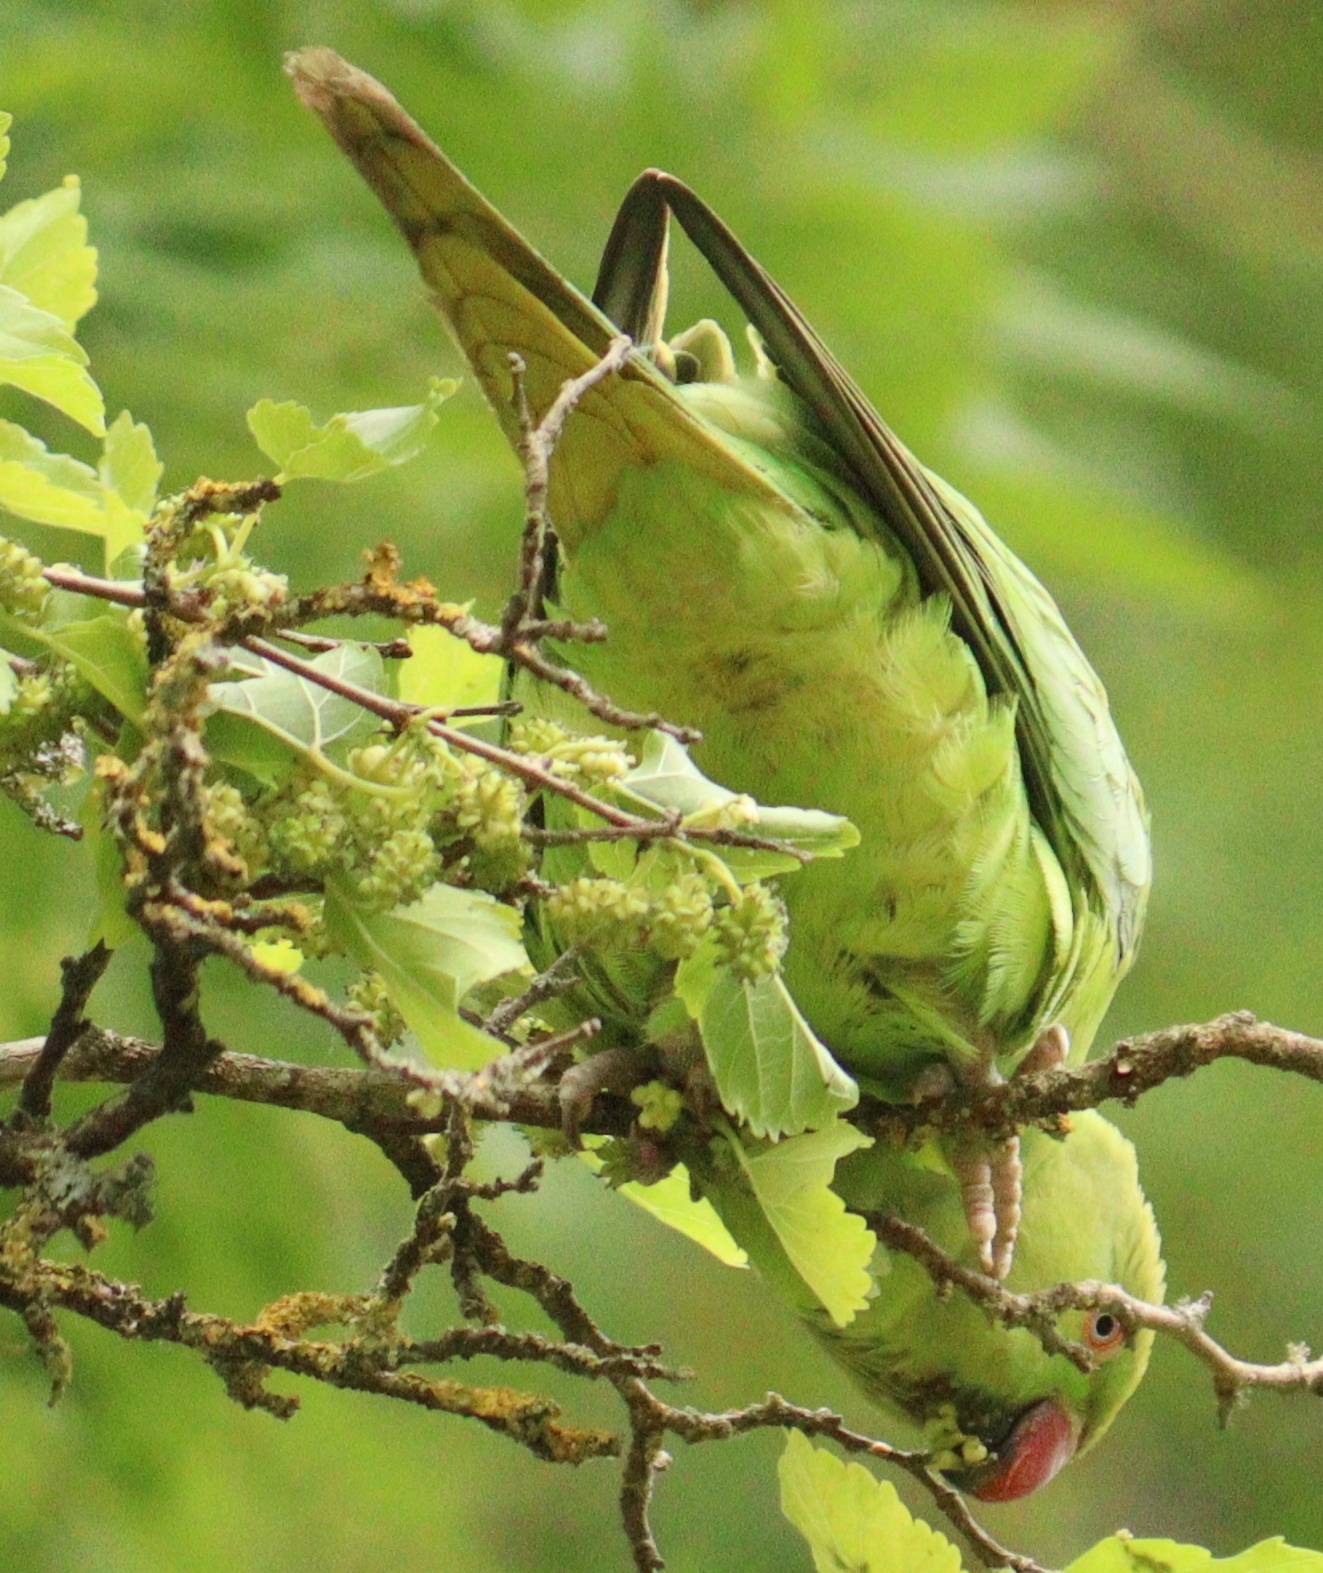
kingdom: Animalia
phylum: Chordata
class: Aves
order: Psittaciformes
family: Psittacidae
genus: Psittacula
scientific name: Psittacula krameri
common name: Rose-ringed parakeet
